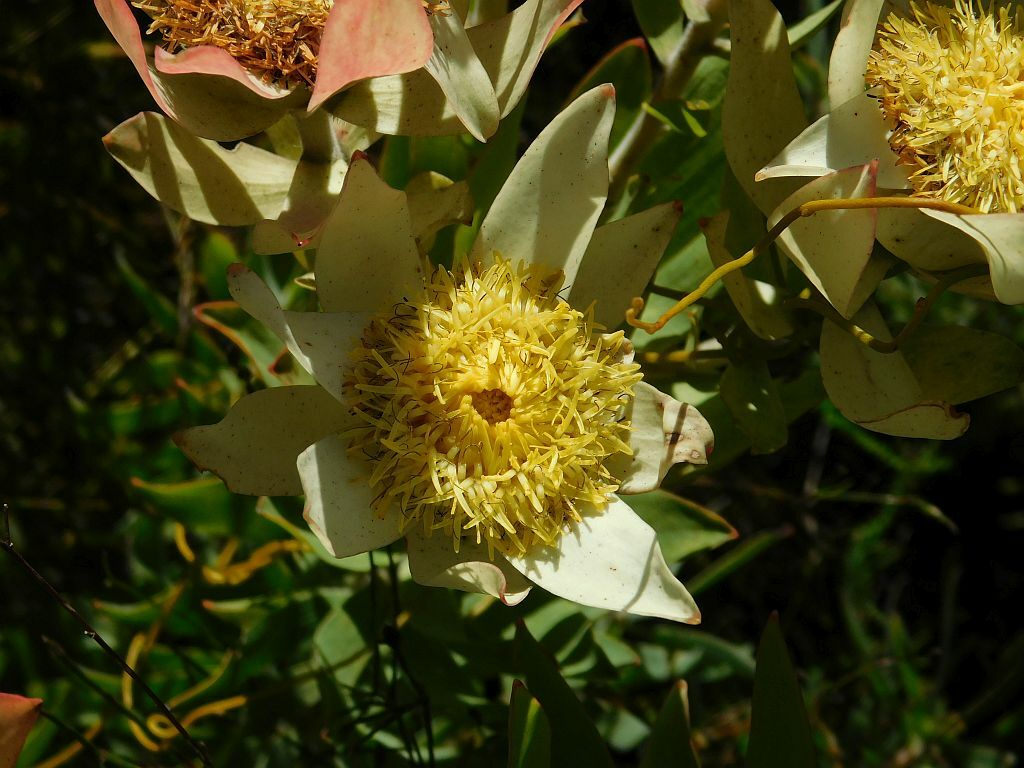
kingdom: Plantae
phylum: Tracheophyta
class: Magnoliopsida
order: Proteales
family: Proteaceae
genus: Leucadendron
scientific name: Leucadendron burchellii
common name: Riviersonderend conebush
